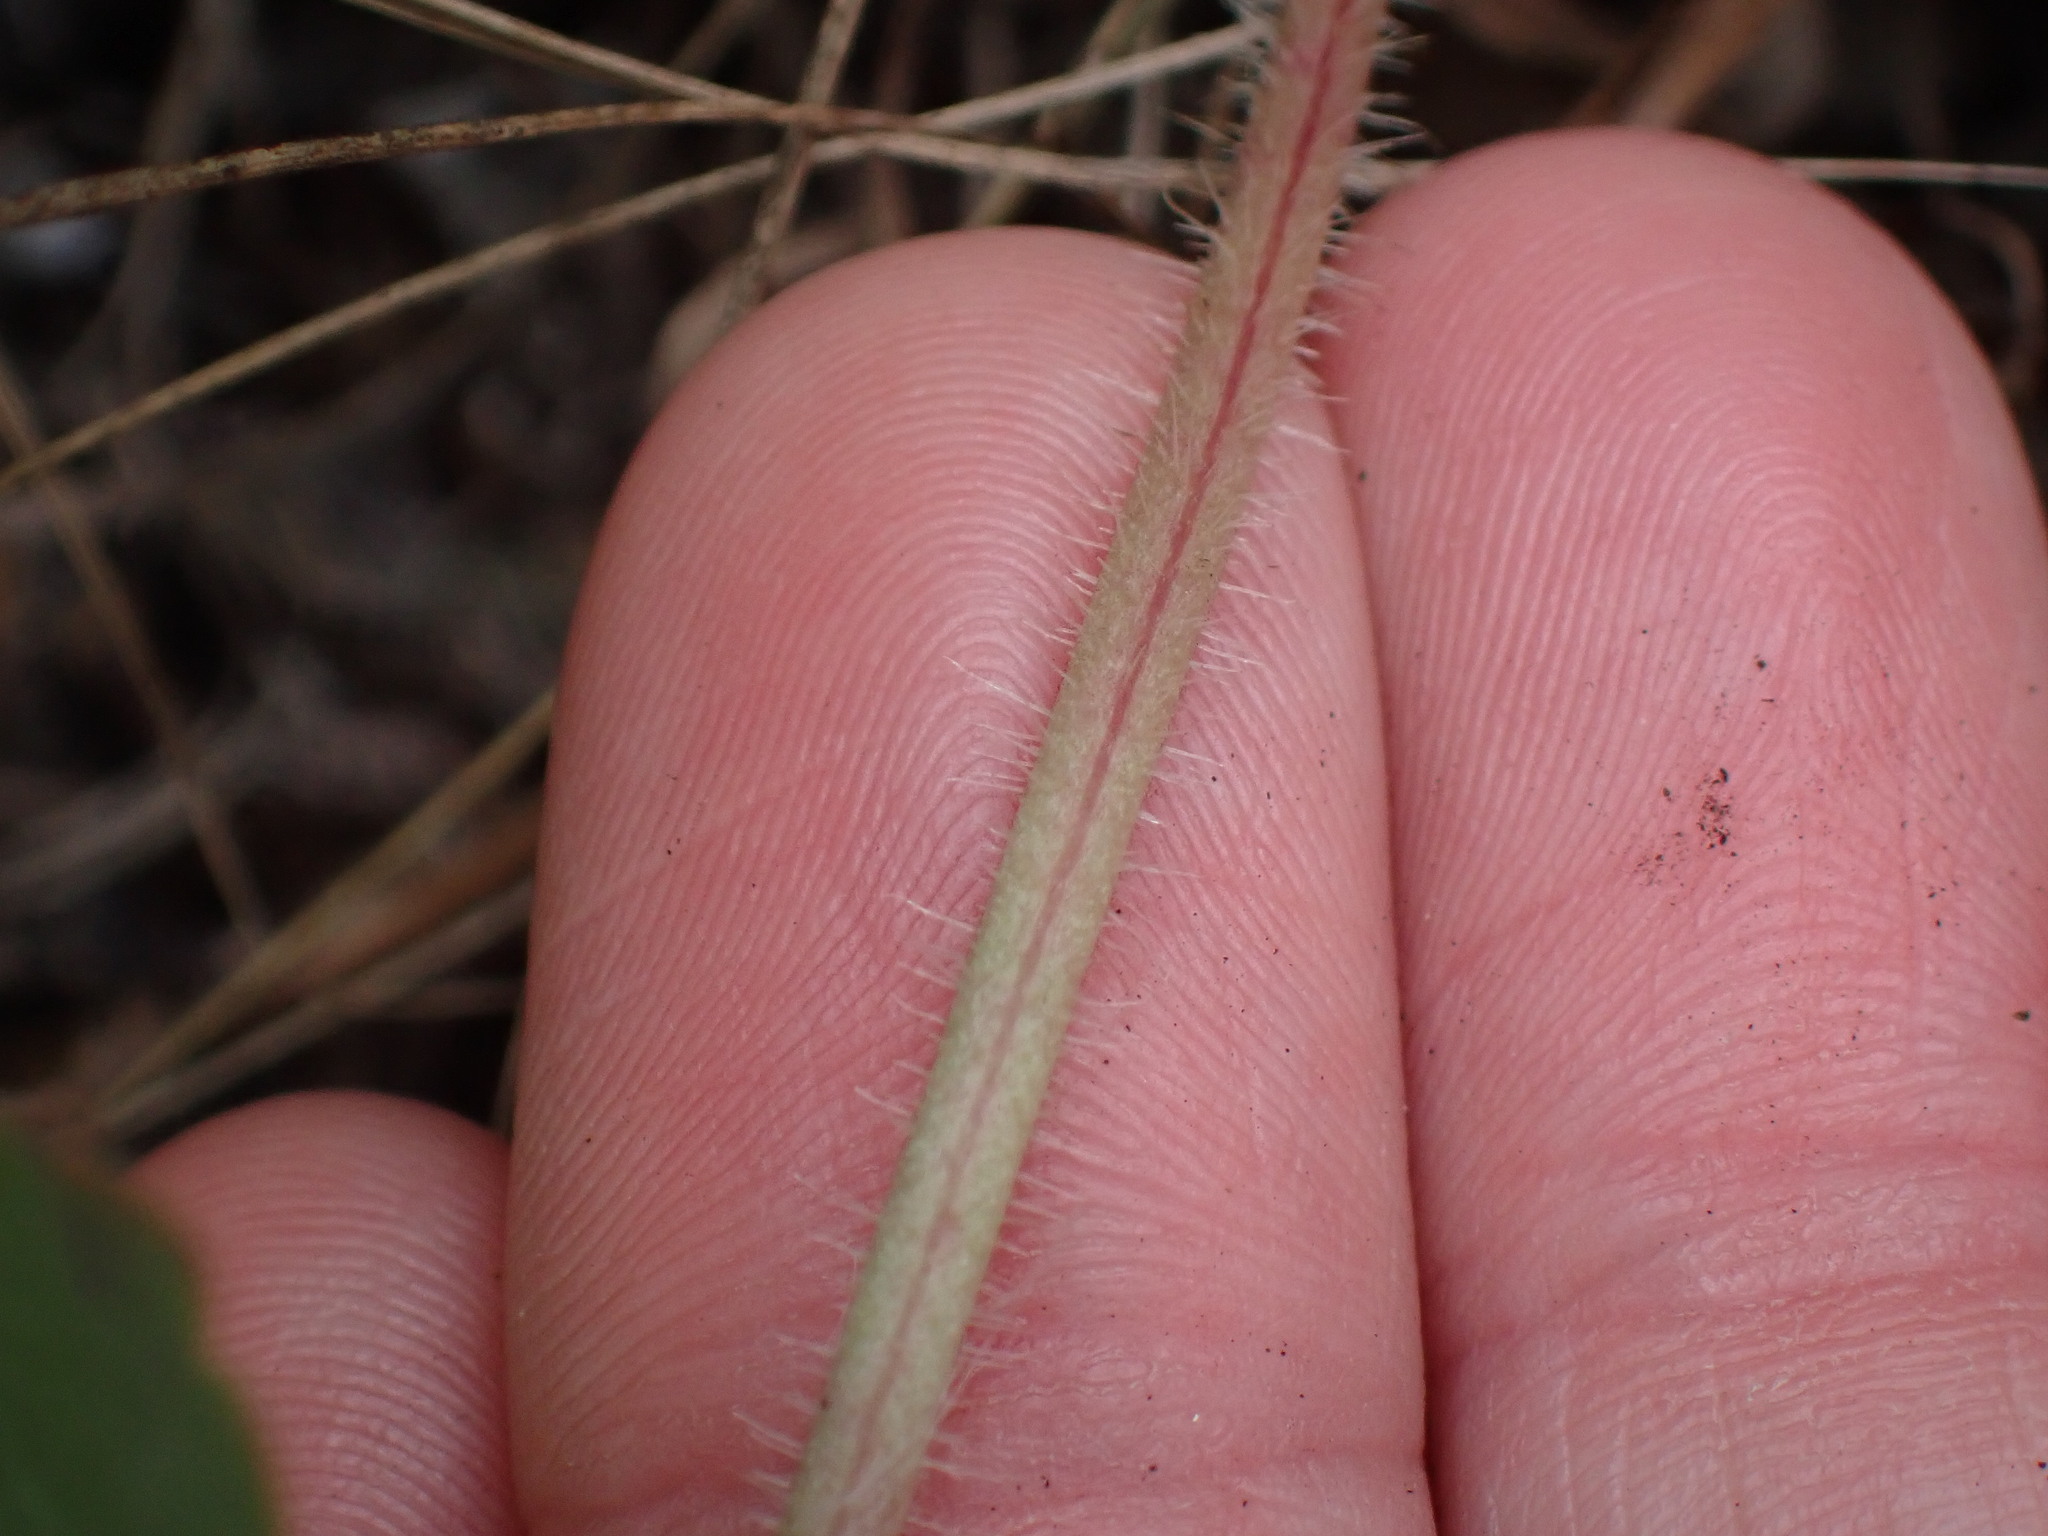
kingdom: Plantae
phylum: Tracheophyta
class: Magnoliopsida
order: Saxifragales
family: Saxifragaceae
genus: Heuchera
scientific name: Heuchera richardsonii
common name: Richardson's alumroot
